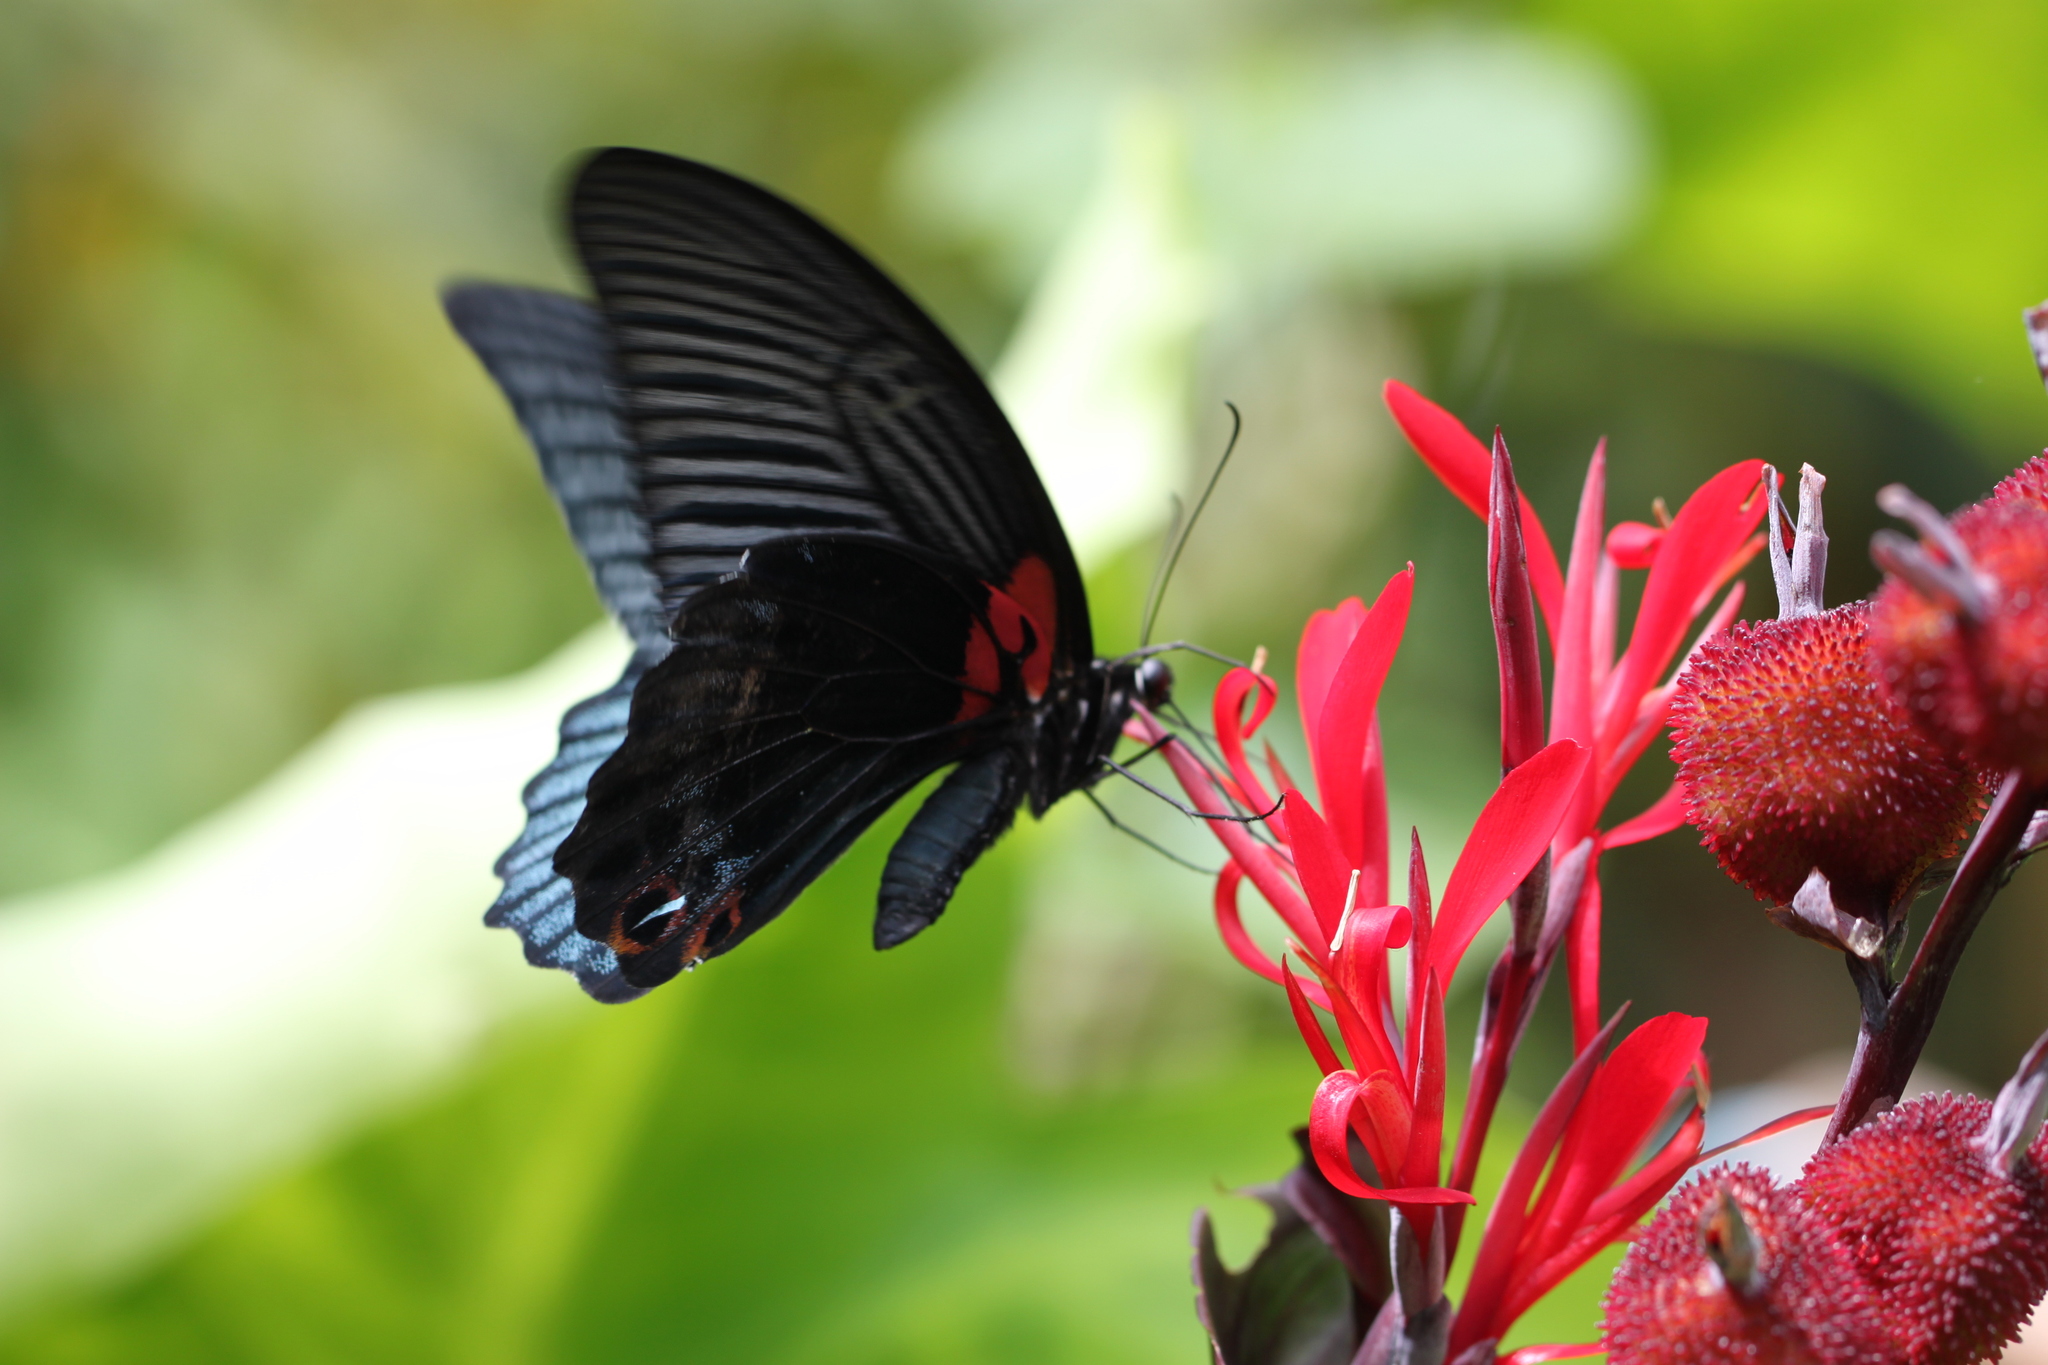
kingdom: Animalia
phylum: Arthropoda
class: Insecta
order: Lepidoptera
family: Papilionidae
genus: Papilio
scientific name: Papilio memnon
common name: Great mormon
